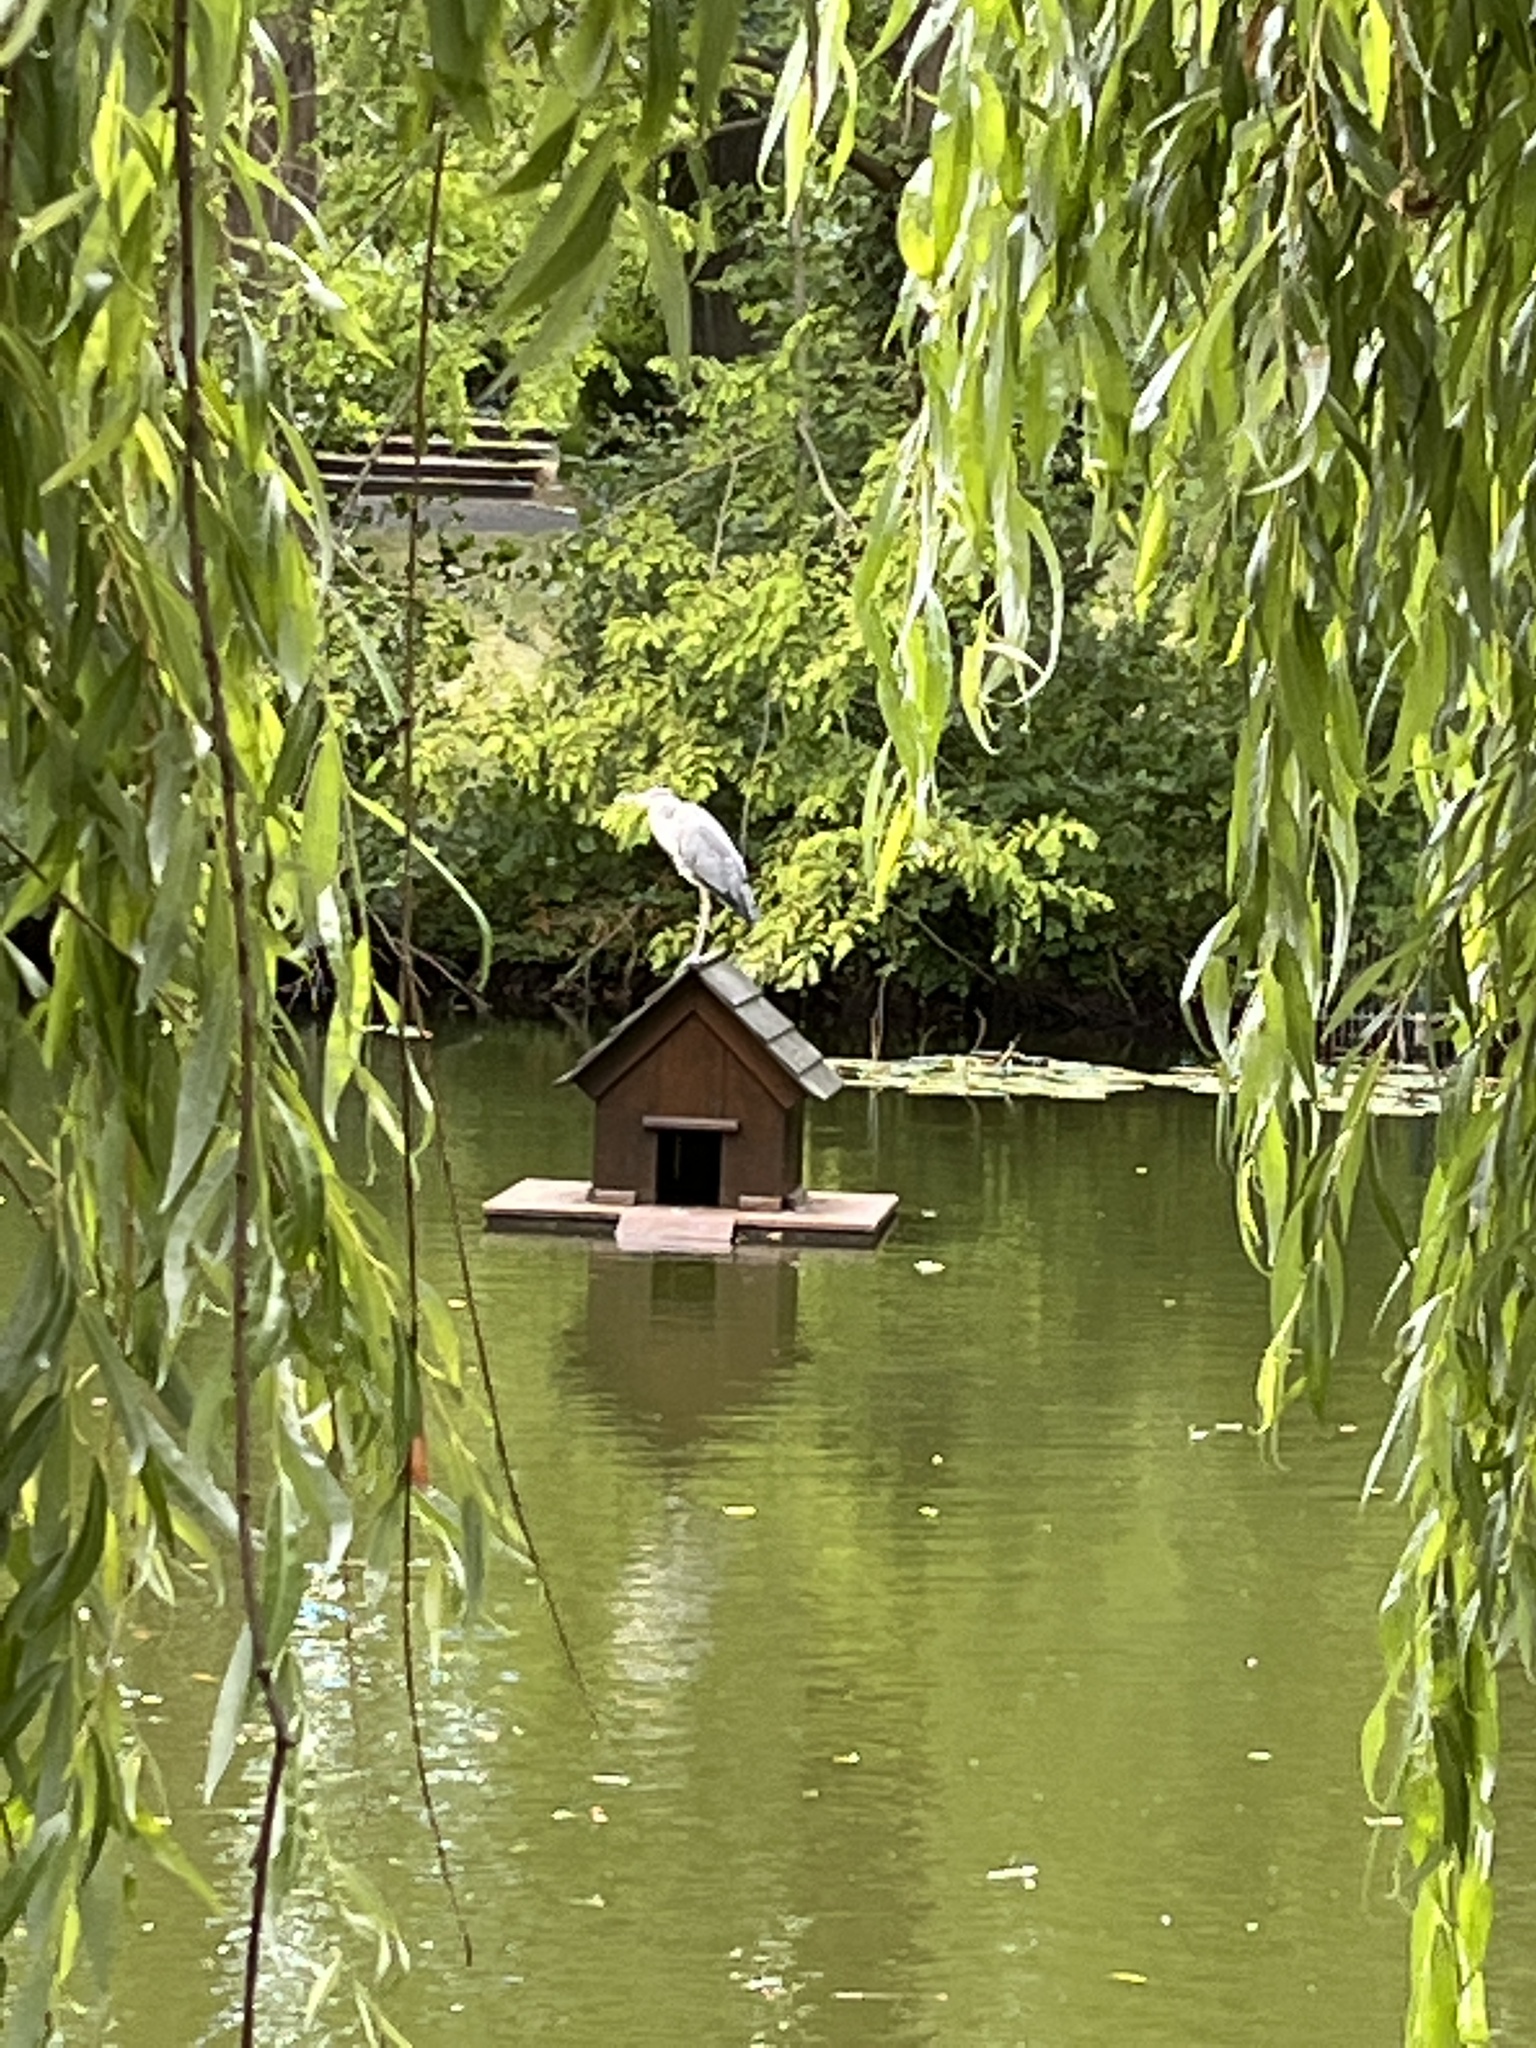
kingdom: Animalia
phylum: Chordata
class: Aves
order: Pelecaniformes
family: Ardeidae
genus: Ardea
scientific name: Ardea cinerea
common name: Grey heron
